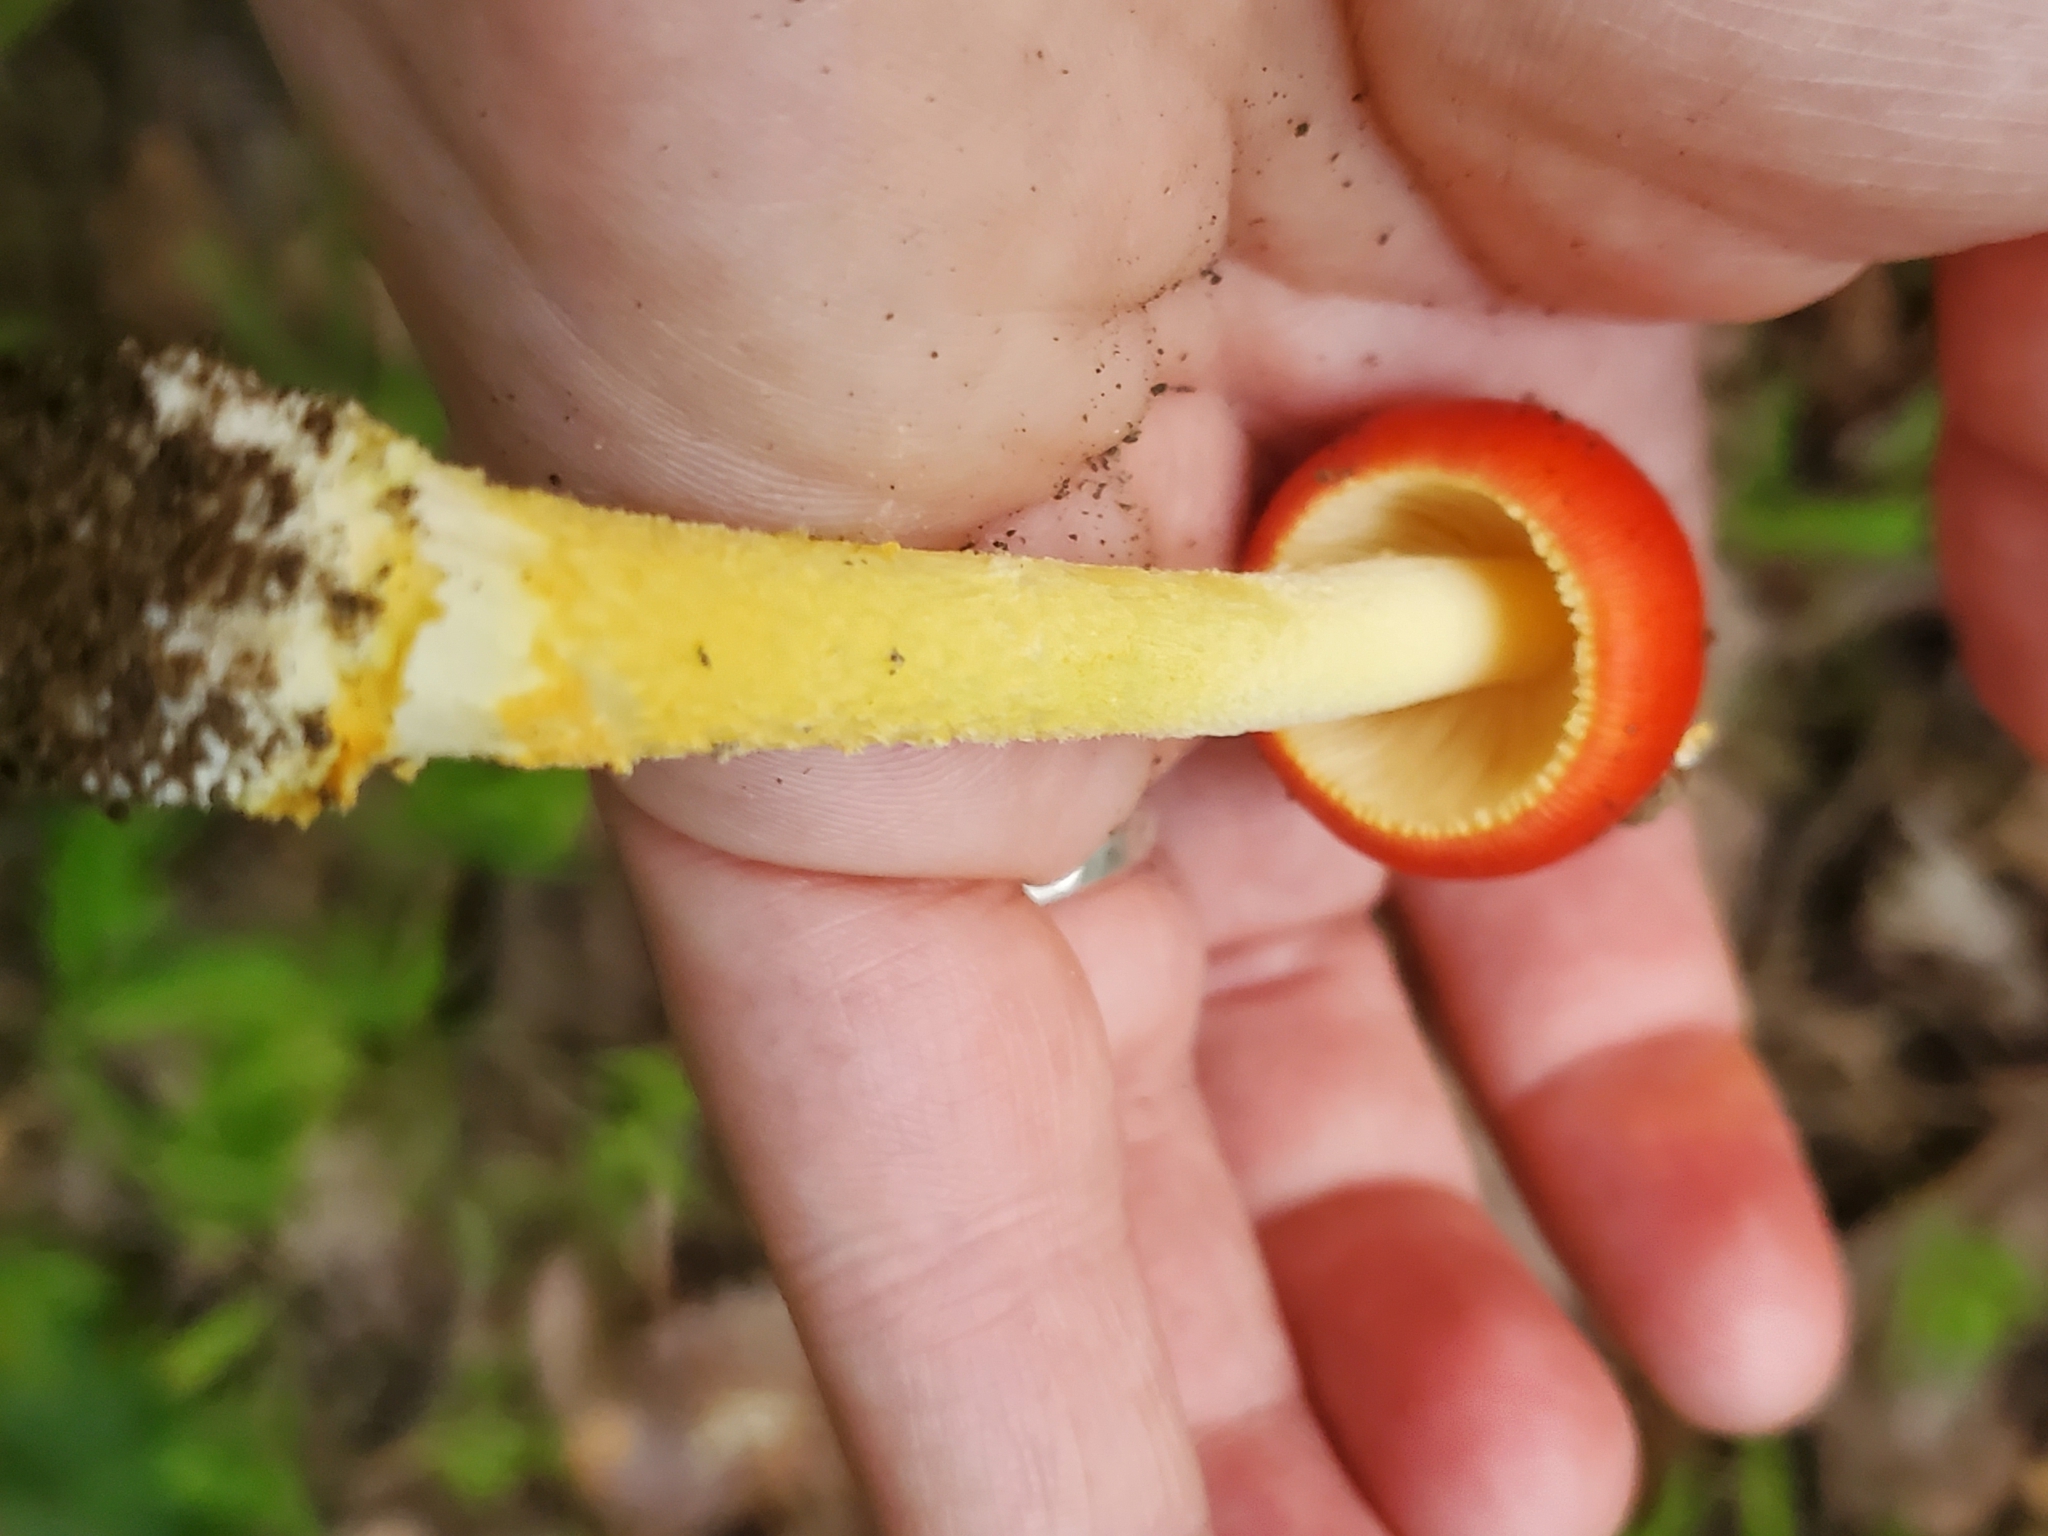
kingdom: Fungi
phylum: Basidiomycota
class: Agaricomycetes
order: Agaricales
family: Amanitaceae
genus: Amanita
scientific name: Amanita parcivolvata
